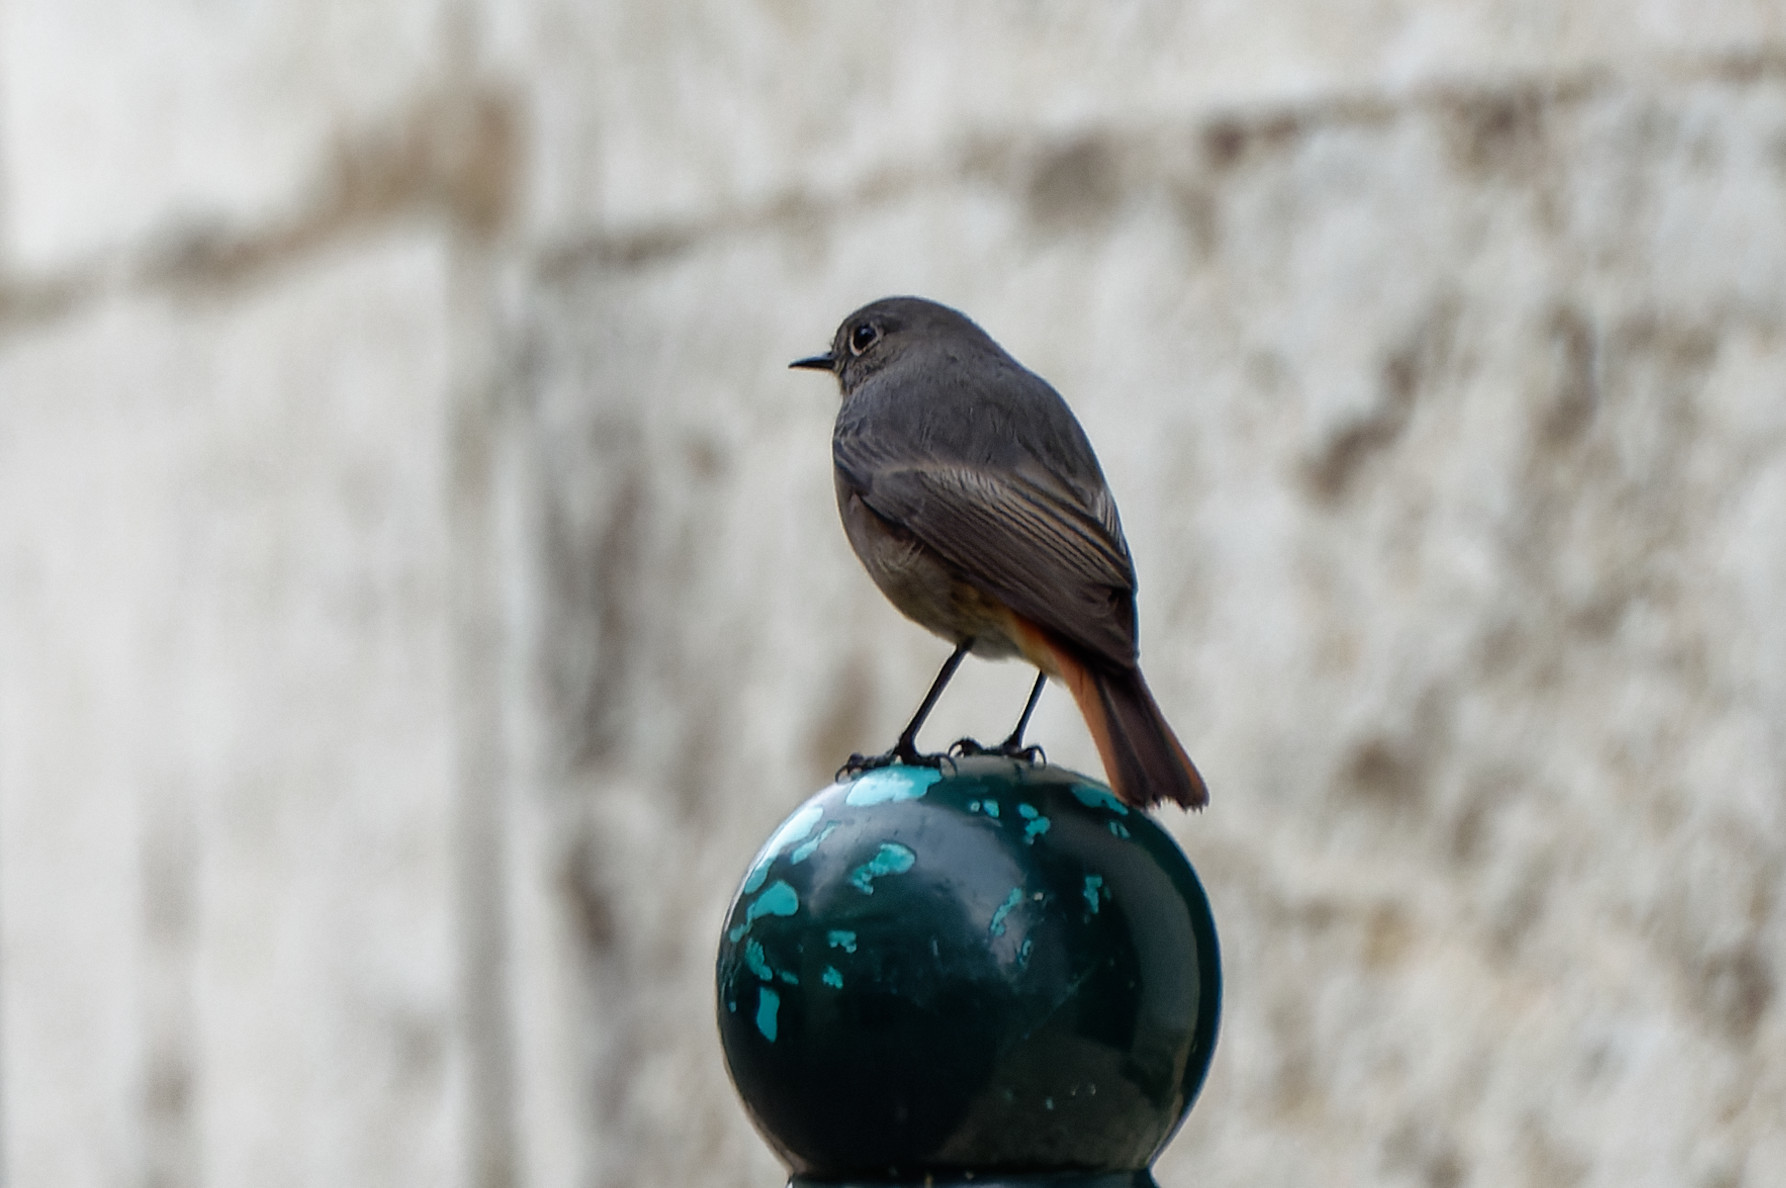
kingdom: Animalia
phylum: Chordata
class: Aves
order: Passeriformes
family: Muscicapidae
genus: Phoenicurus
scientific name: Phoenicurus ochruros
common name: Black redstart
